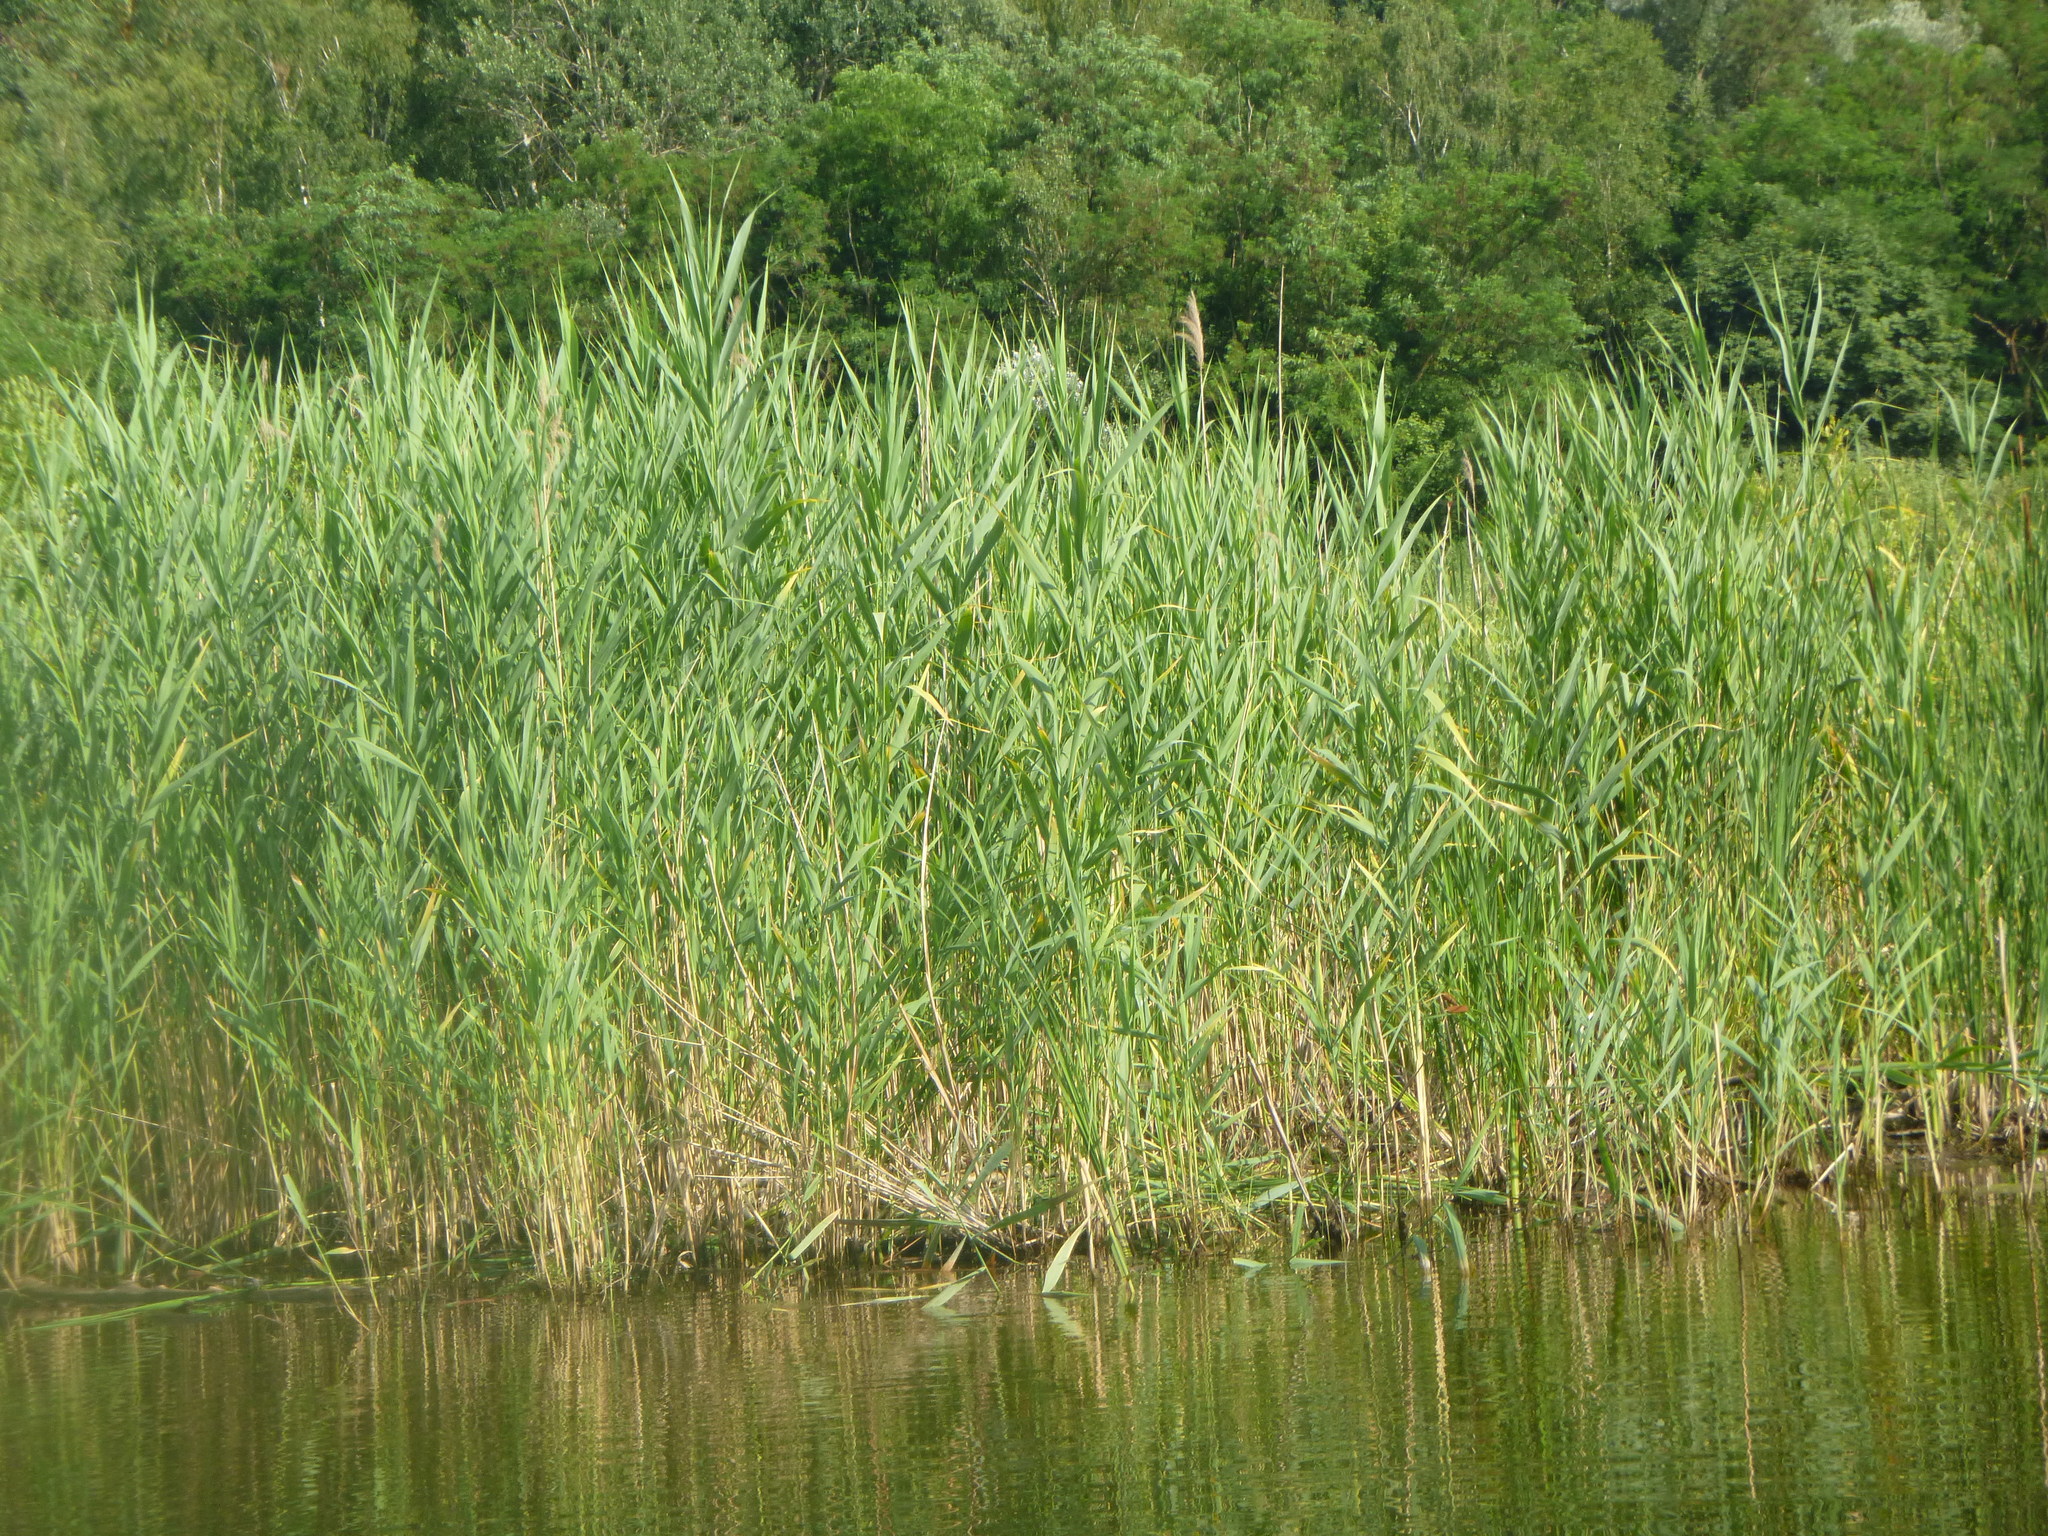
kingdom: Plantae
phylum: Tracheophyta
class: Liliopsida
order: Poales
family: Poaceae
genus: Phragmites
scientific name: Phragmites australis
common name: Common reed
